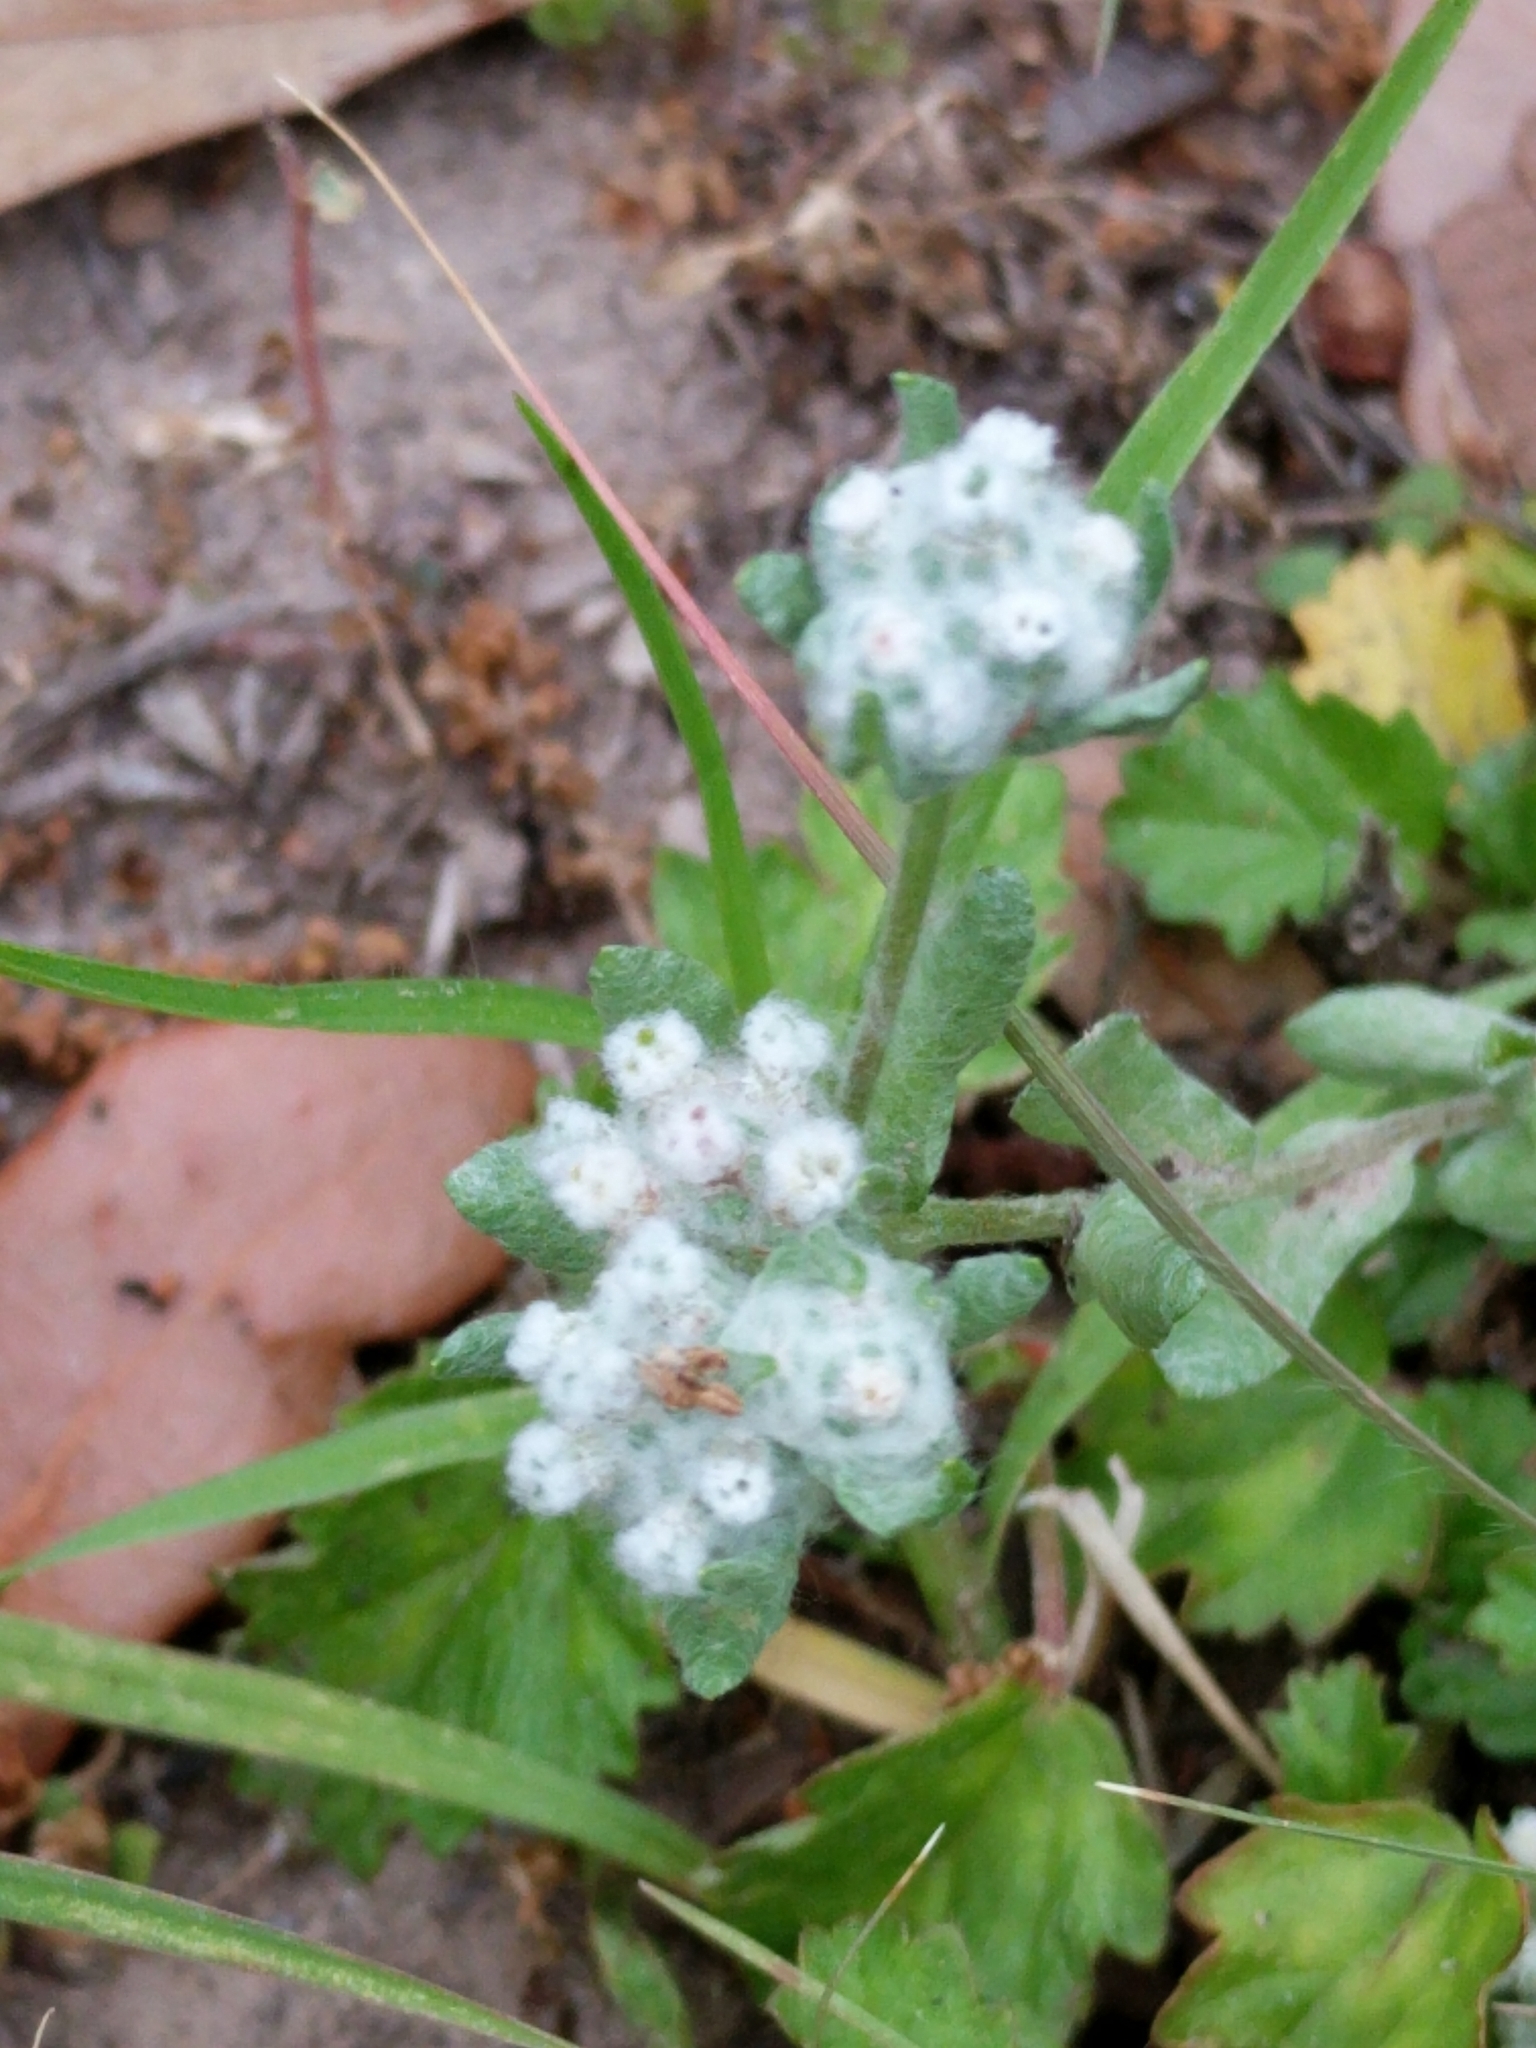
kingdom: Plantae
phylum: Tracheophyta
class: Magnoliopsida
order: Asterales
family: Asteraceae
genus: Diaperia
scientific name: Diaperia verna
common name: Many-stem rabbit-tobacco
